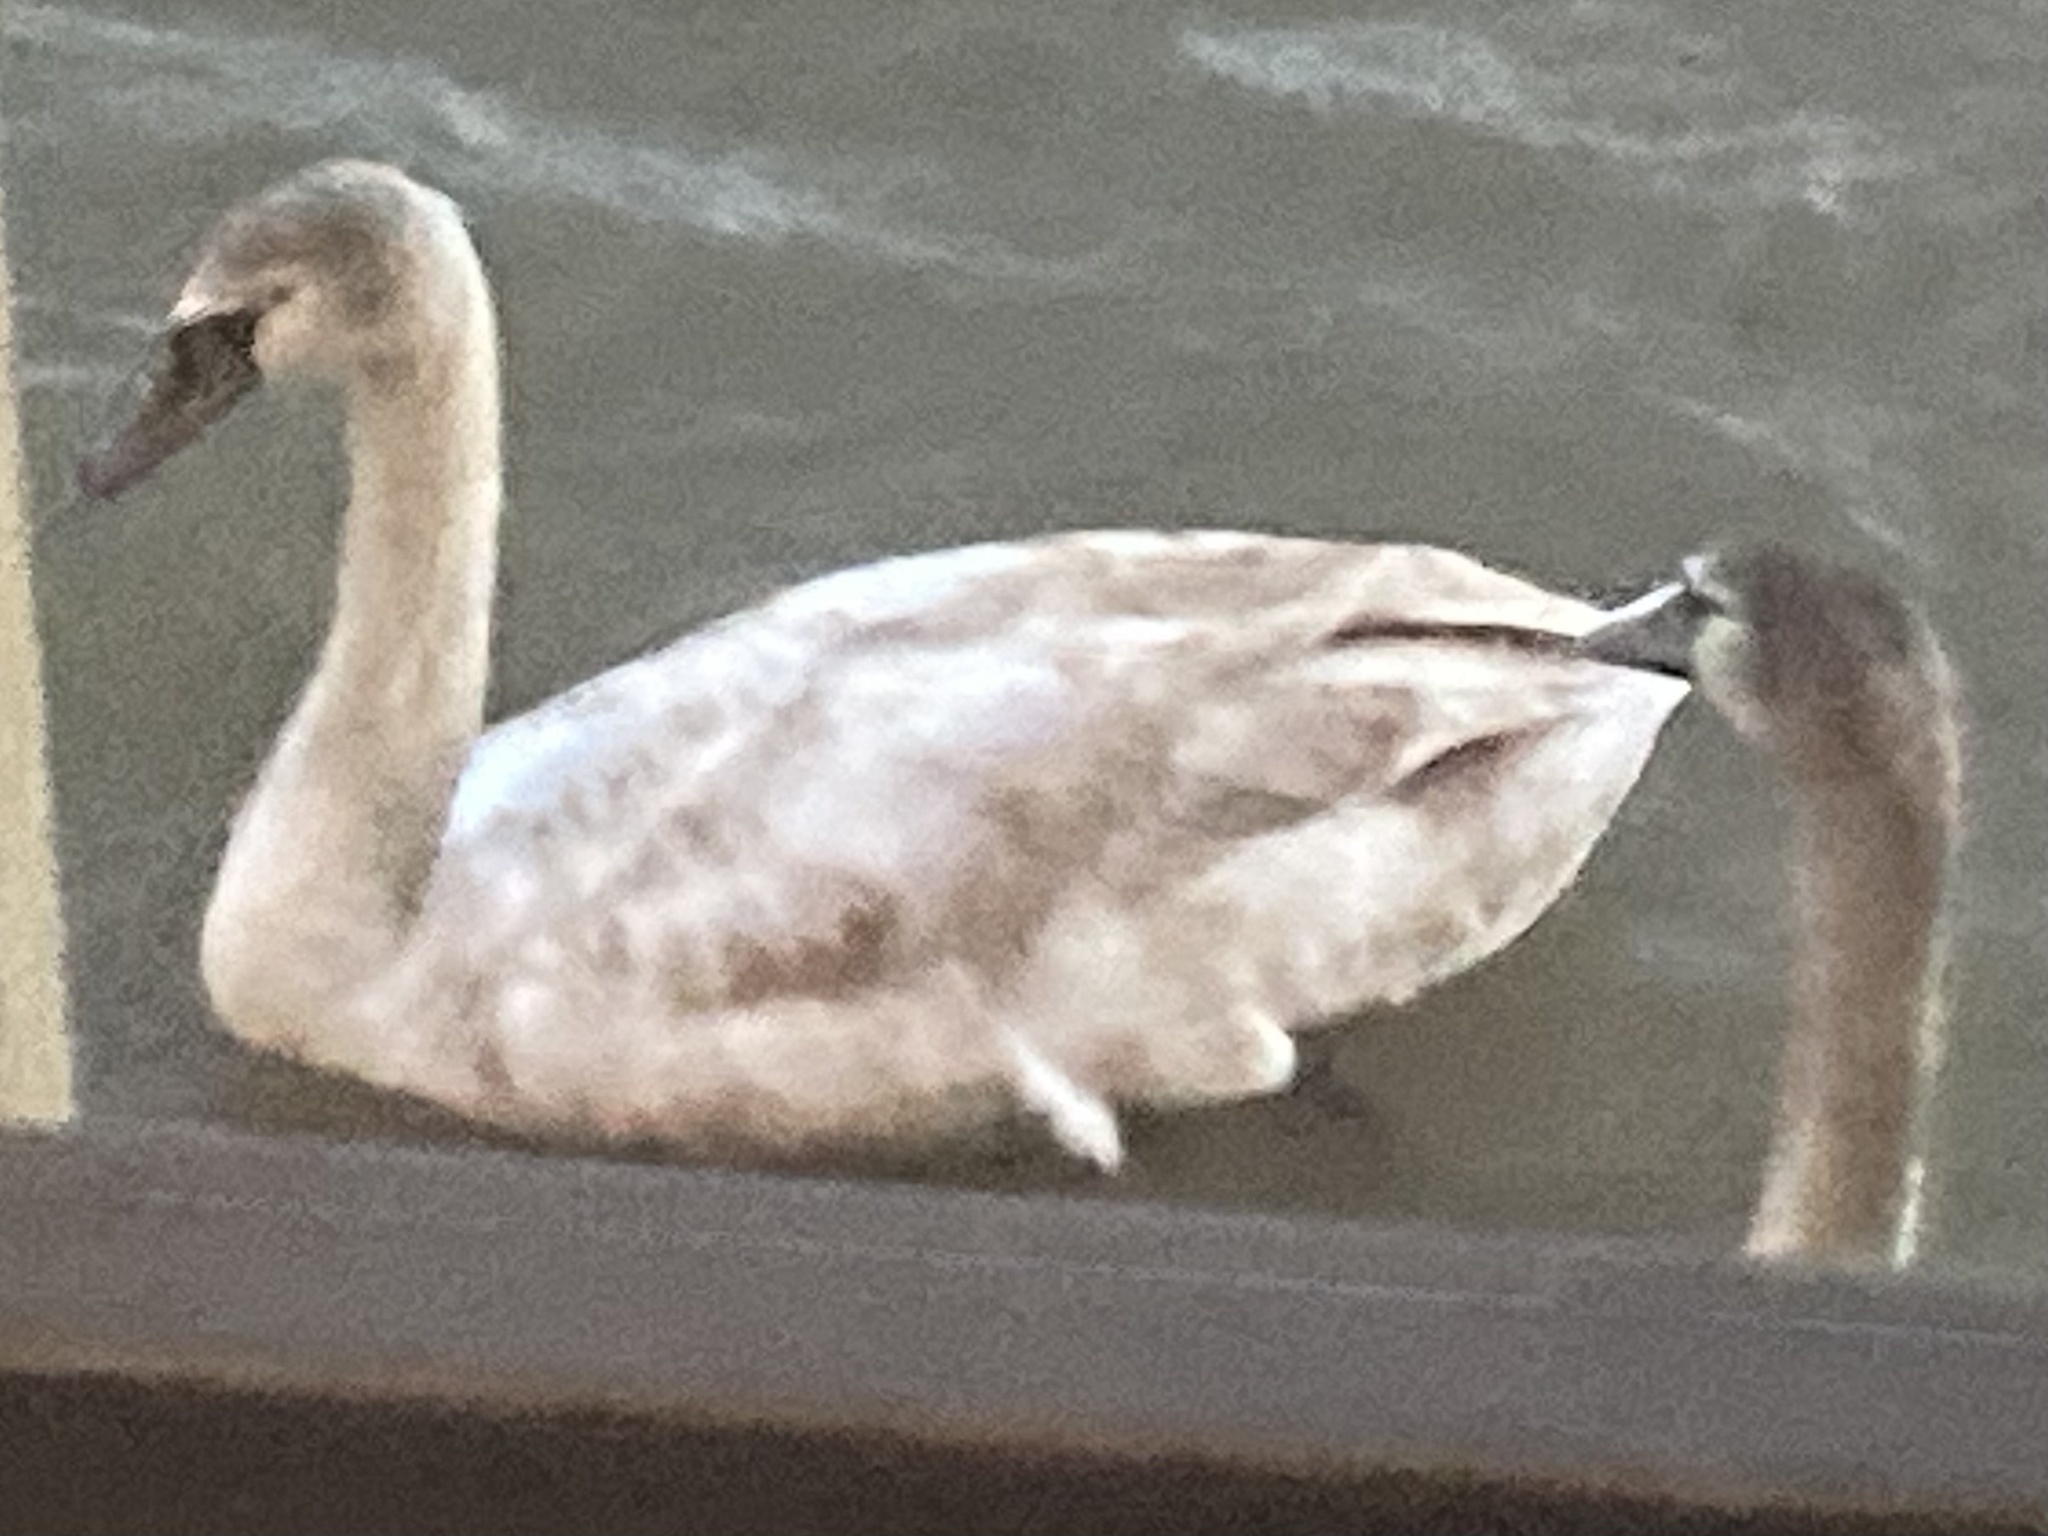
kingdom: Animalia
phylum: Chordata
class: Aves
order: Anseriformes
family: Anatidae
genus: Cygnus
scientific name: Cygnus olor
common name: Mute swan
